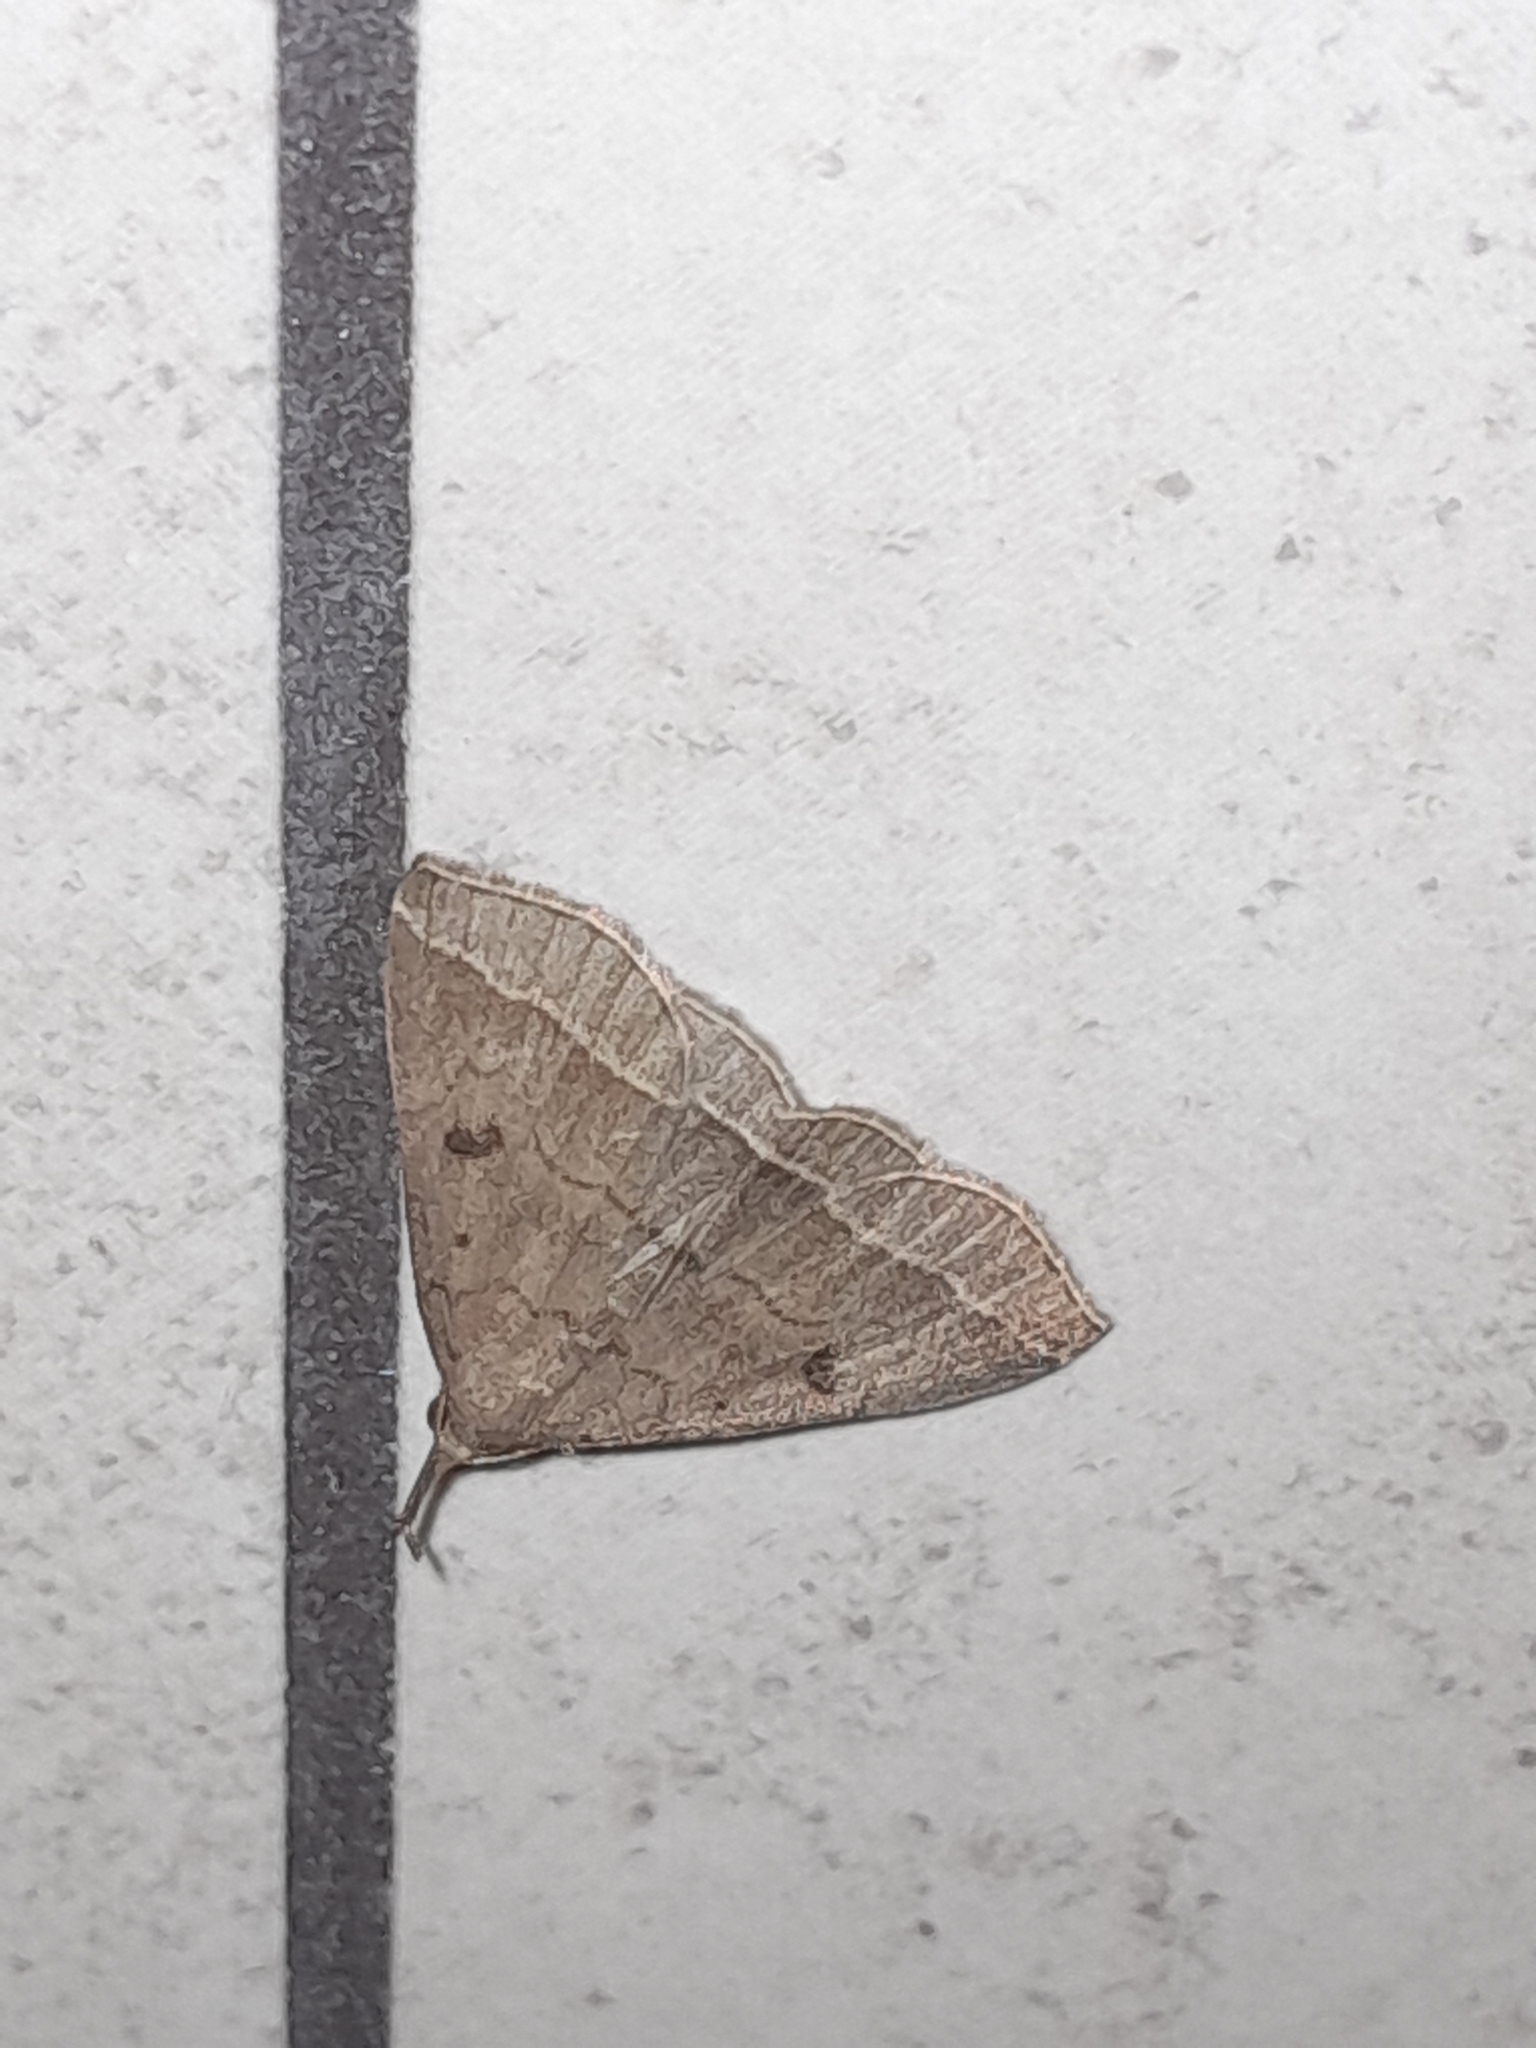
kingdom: Animalia
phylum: Arthropoda
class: Insecta
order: Lepidoptera
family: Erebidae
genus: Pechipogo
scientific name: Pechipogo plumigeralis
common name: Plumed fan-foot
